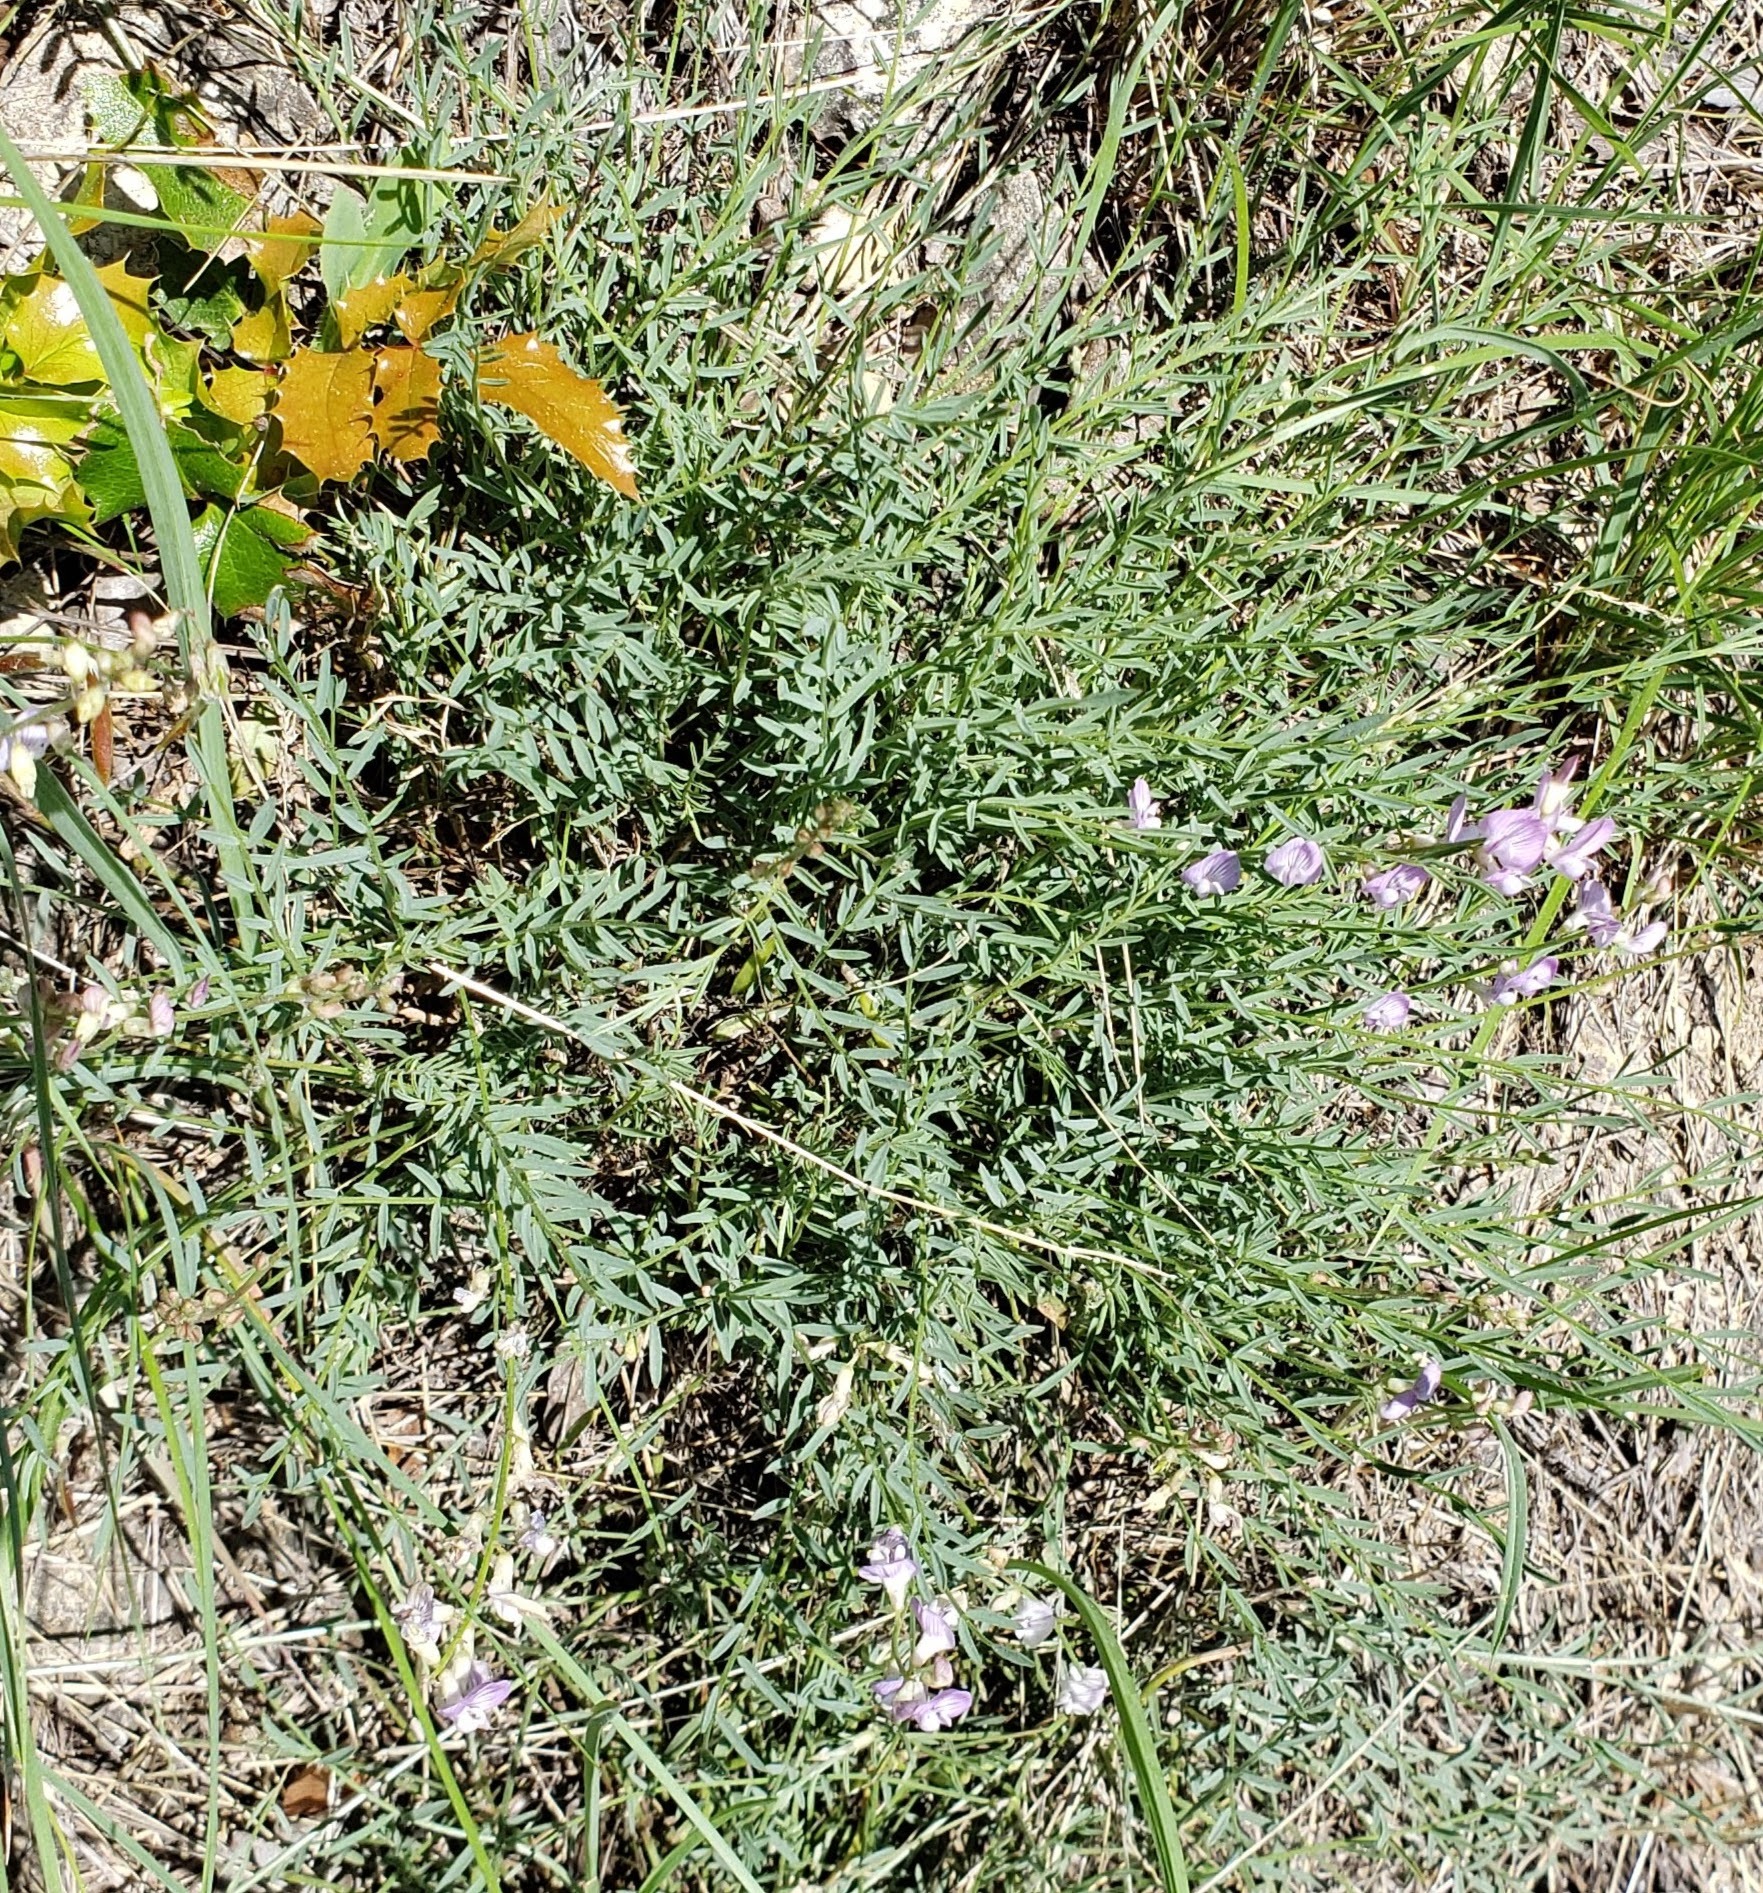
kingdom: Plantae
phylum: Tracheophyta
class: Magnoliopsida
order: Fabales
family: Fabaceae
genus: Astragalus
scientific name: Astragalus miser
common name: Timber milkvetch
